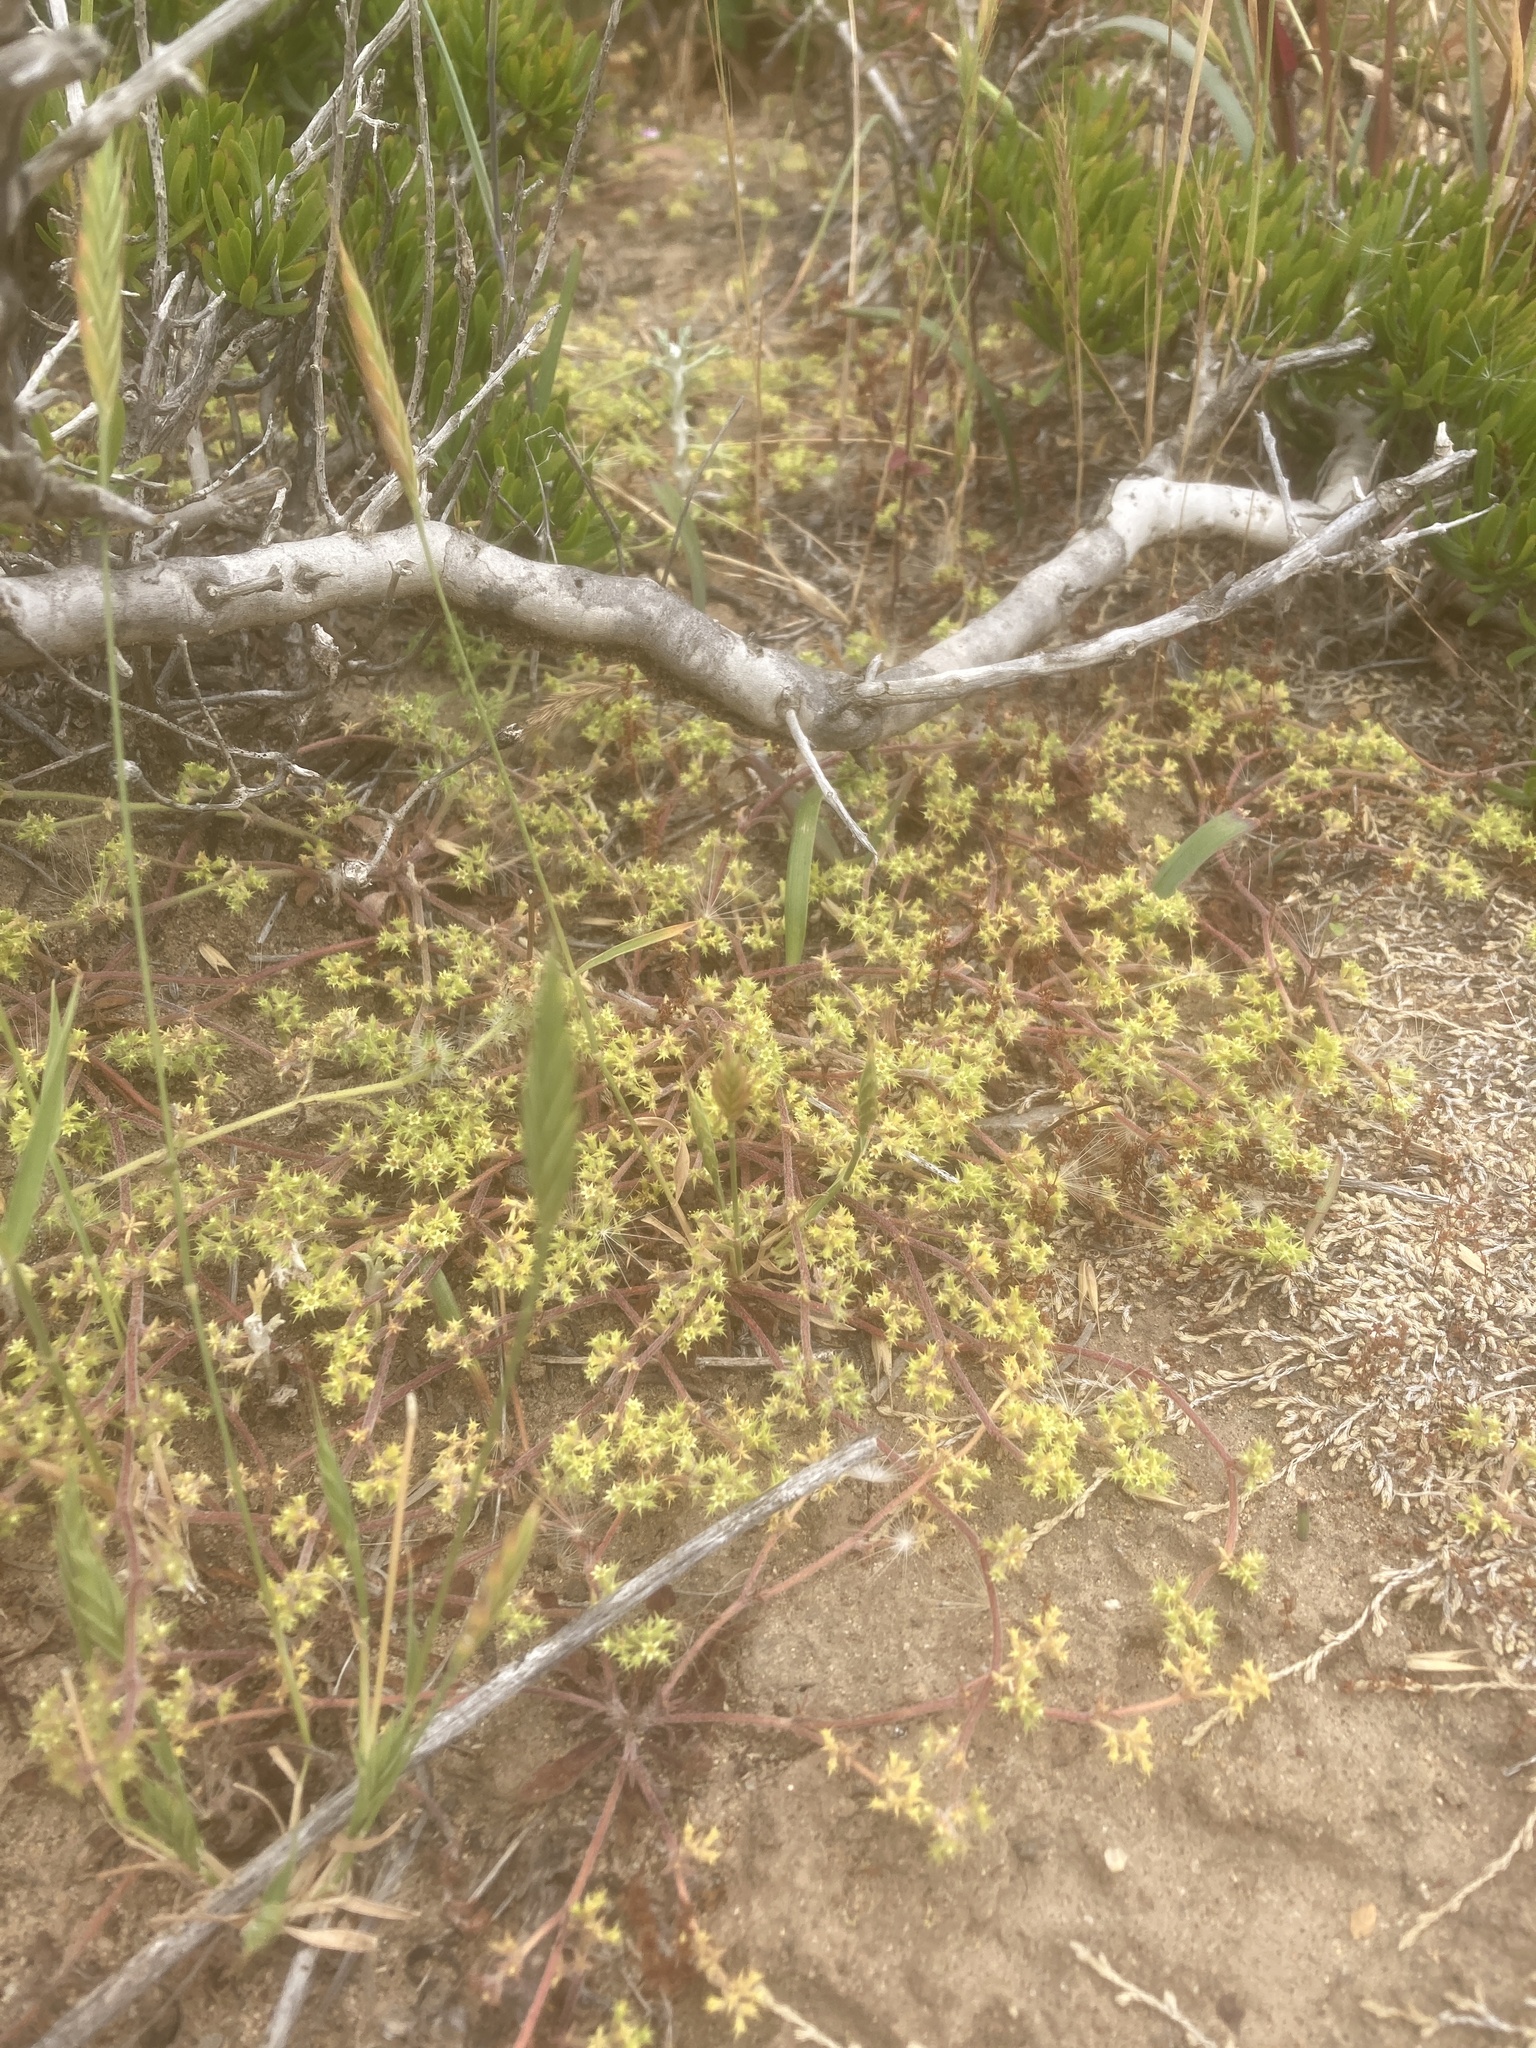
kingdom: Plantae
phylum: Tracheophyta
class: Magnoliopsida
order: Caryophyllales
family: Polygonaceae
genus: Chorizanthe
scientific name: Chorizanthe procumbens
